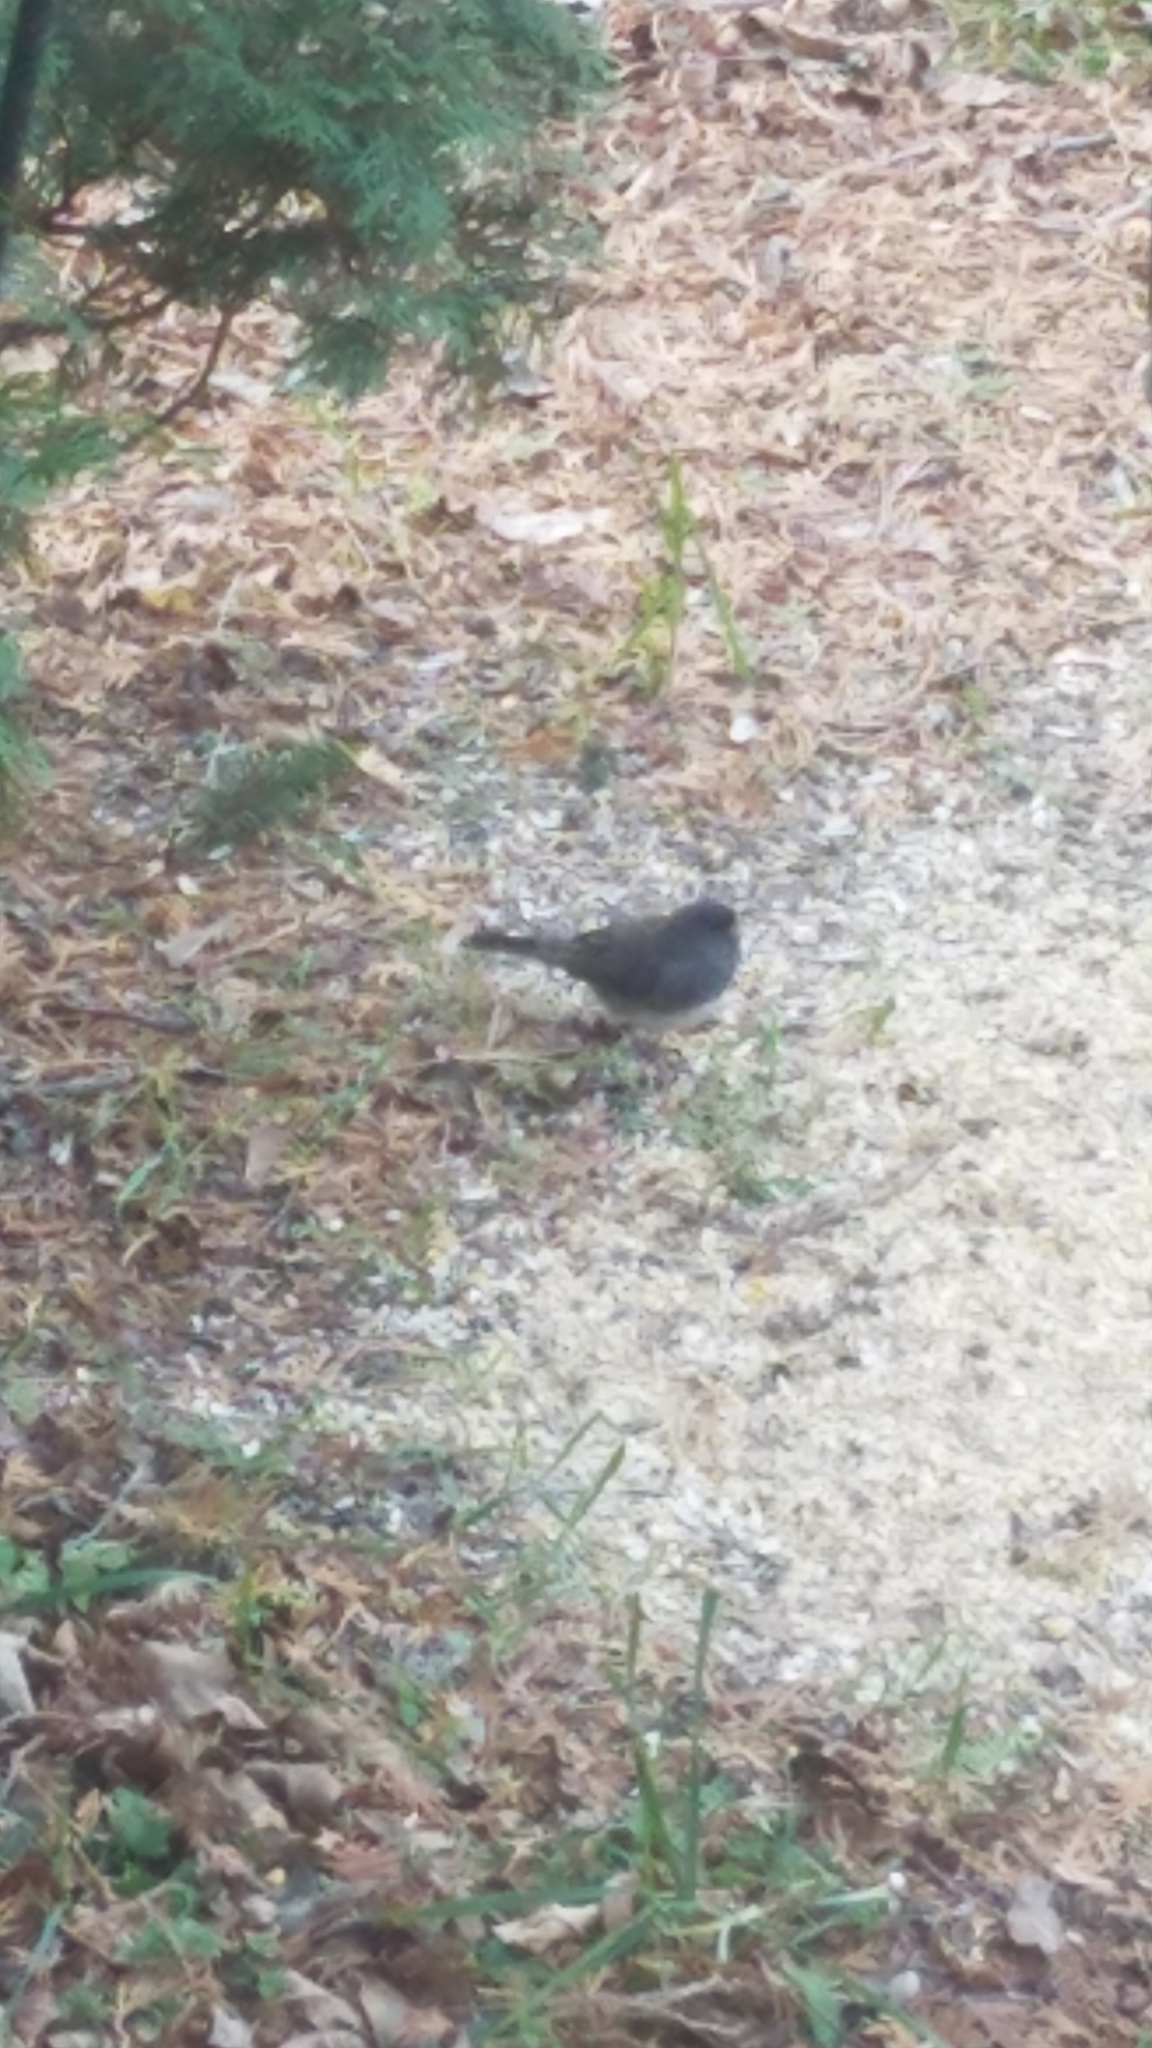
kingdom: Animalia
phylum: Chordata
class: Aves
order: Passeriformes
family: Passerellidae
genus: Junco
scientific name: Junco hyemalis
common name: Dark-eyed junco
